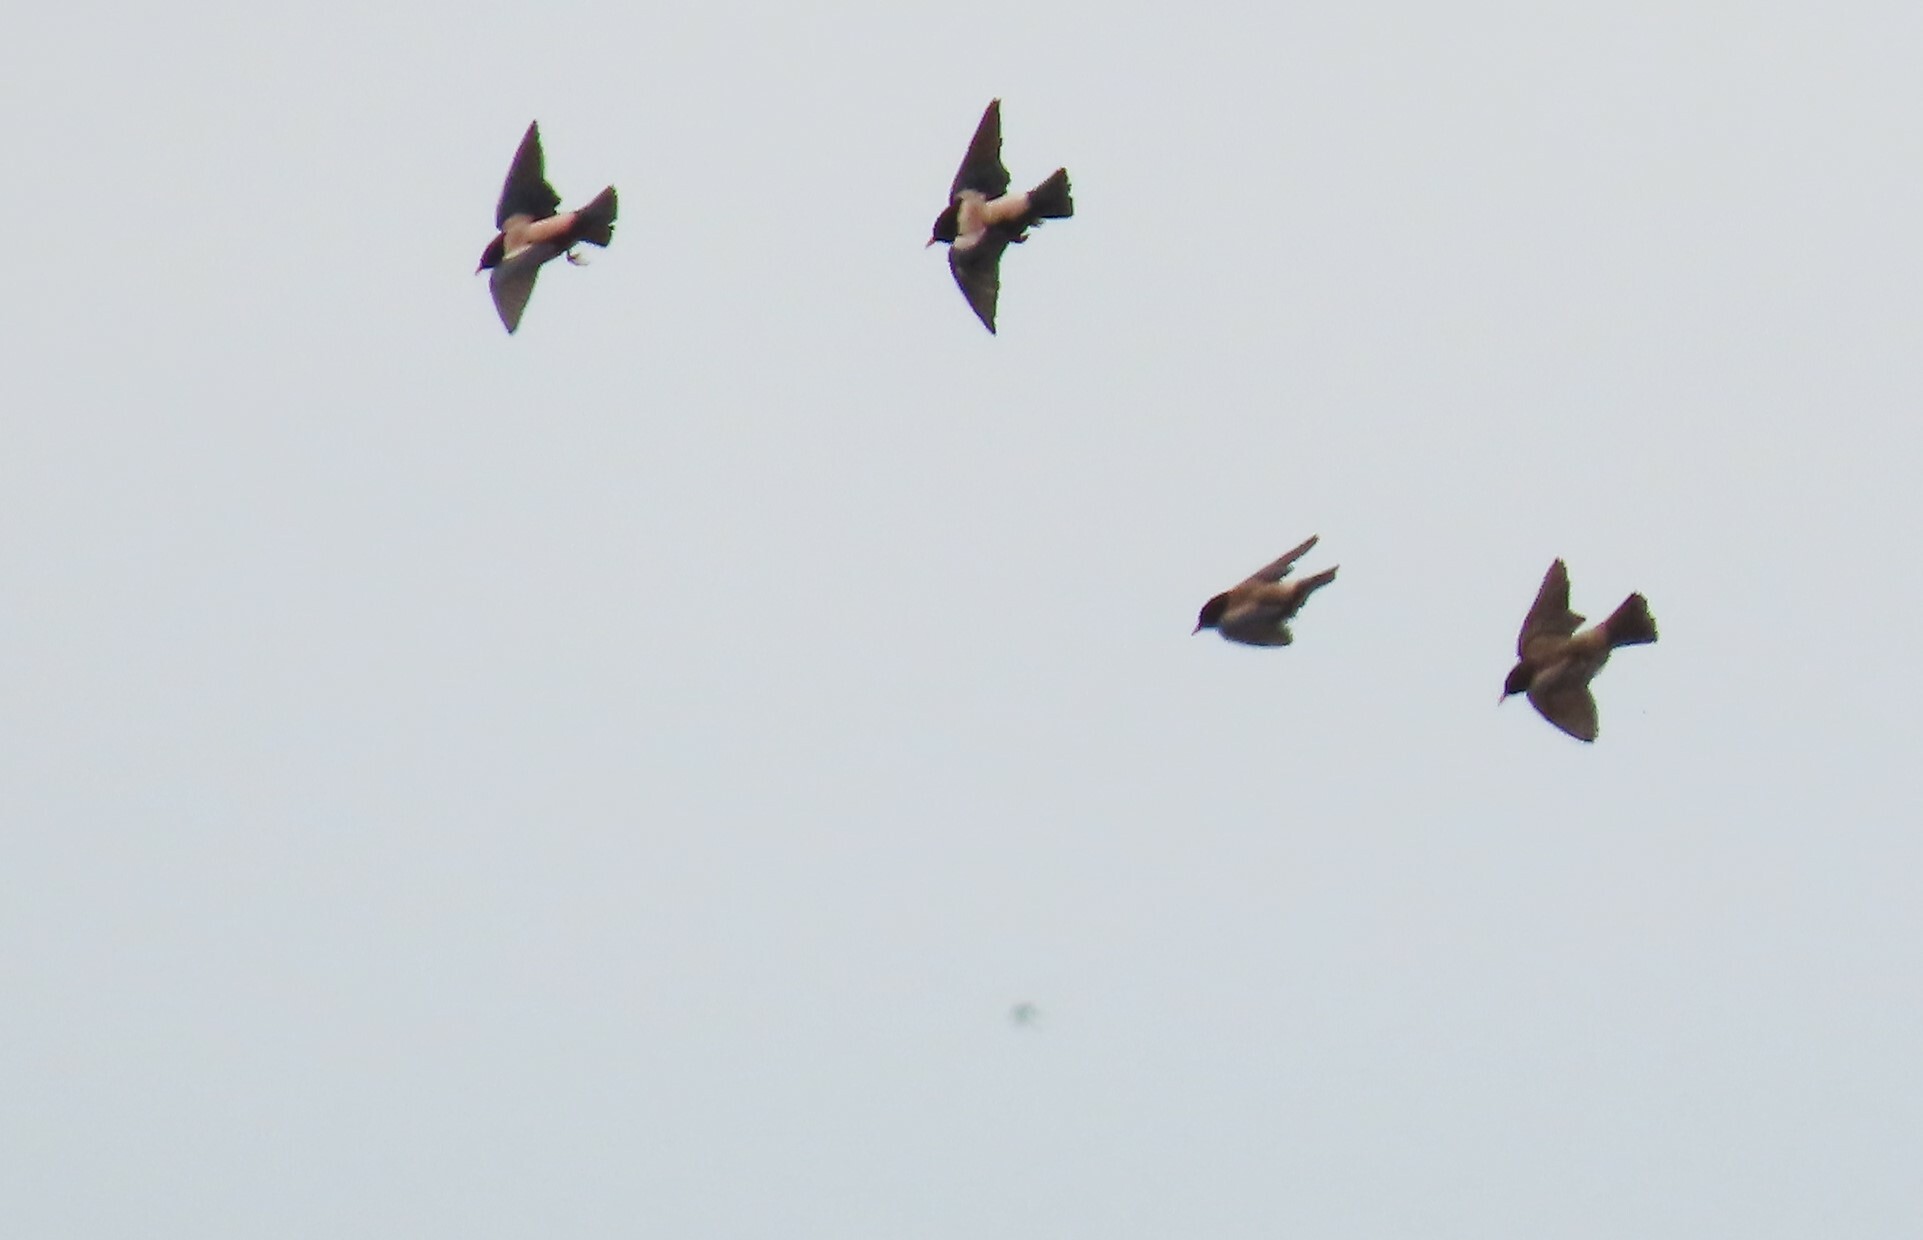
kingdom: Animalia
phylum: Chordata
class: Aves
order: Passeriformes
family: Sturnidae
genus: Pastor
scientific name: Pastor roseus
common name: Rosy starling
